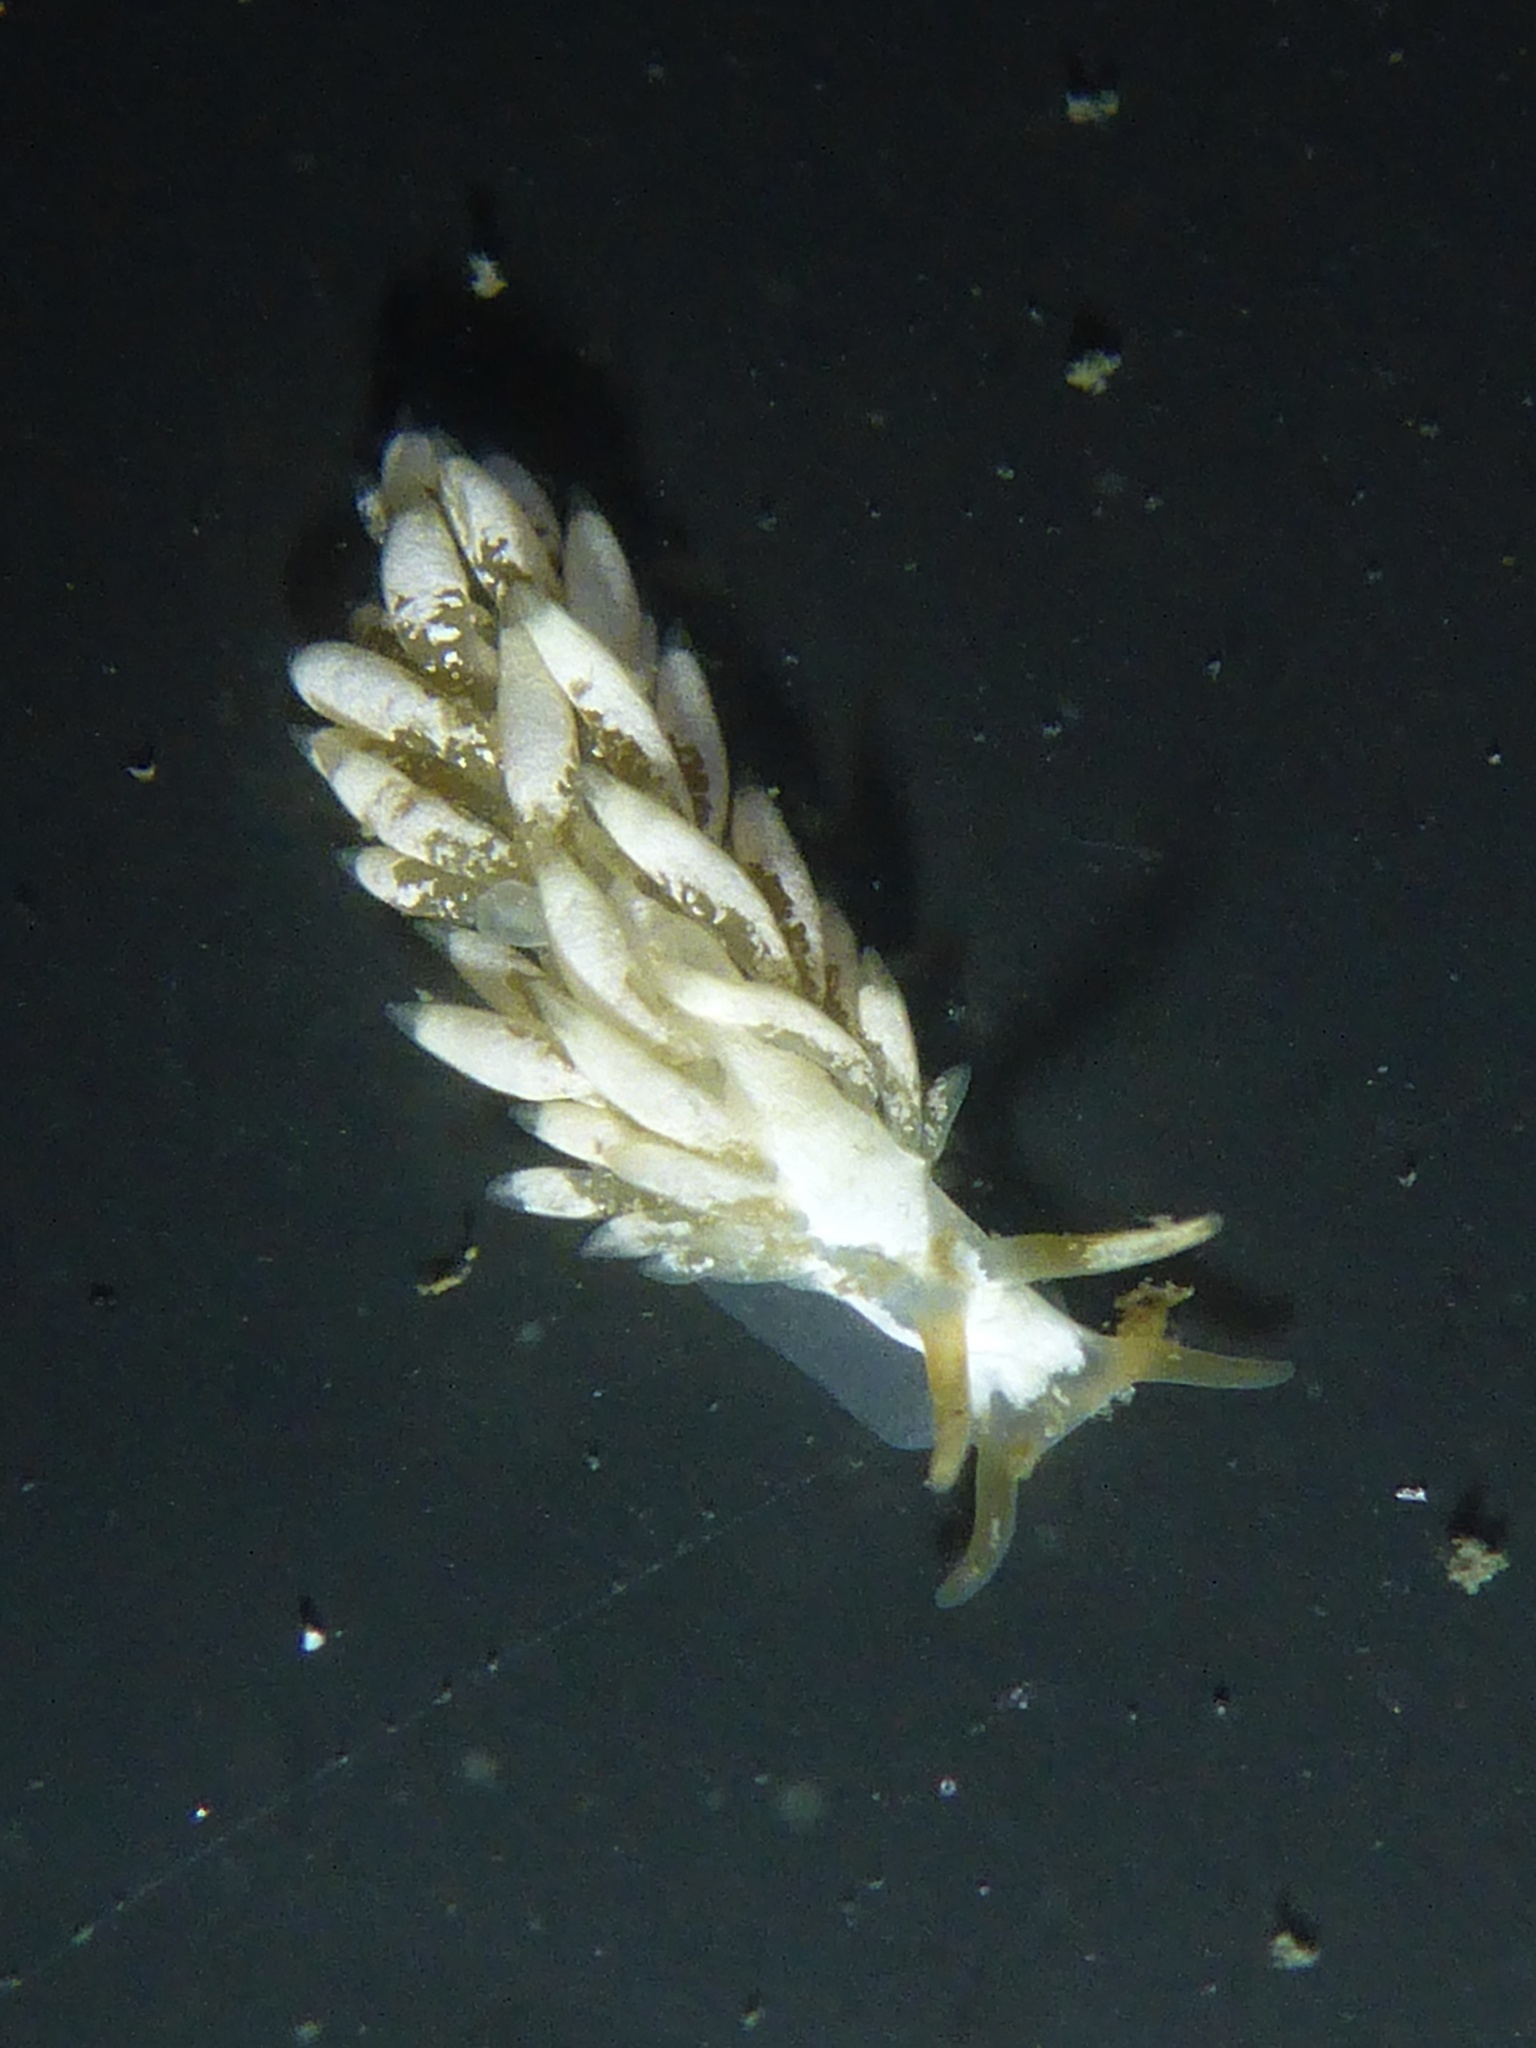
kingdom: Animalia
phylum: Mollusca
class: Gastropoda
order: Nudibranchia
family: Trinchesiidae
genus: Trinchesia
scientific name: Trinchesia albocrusta
